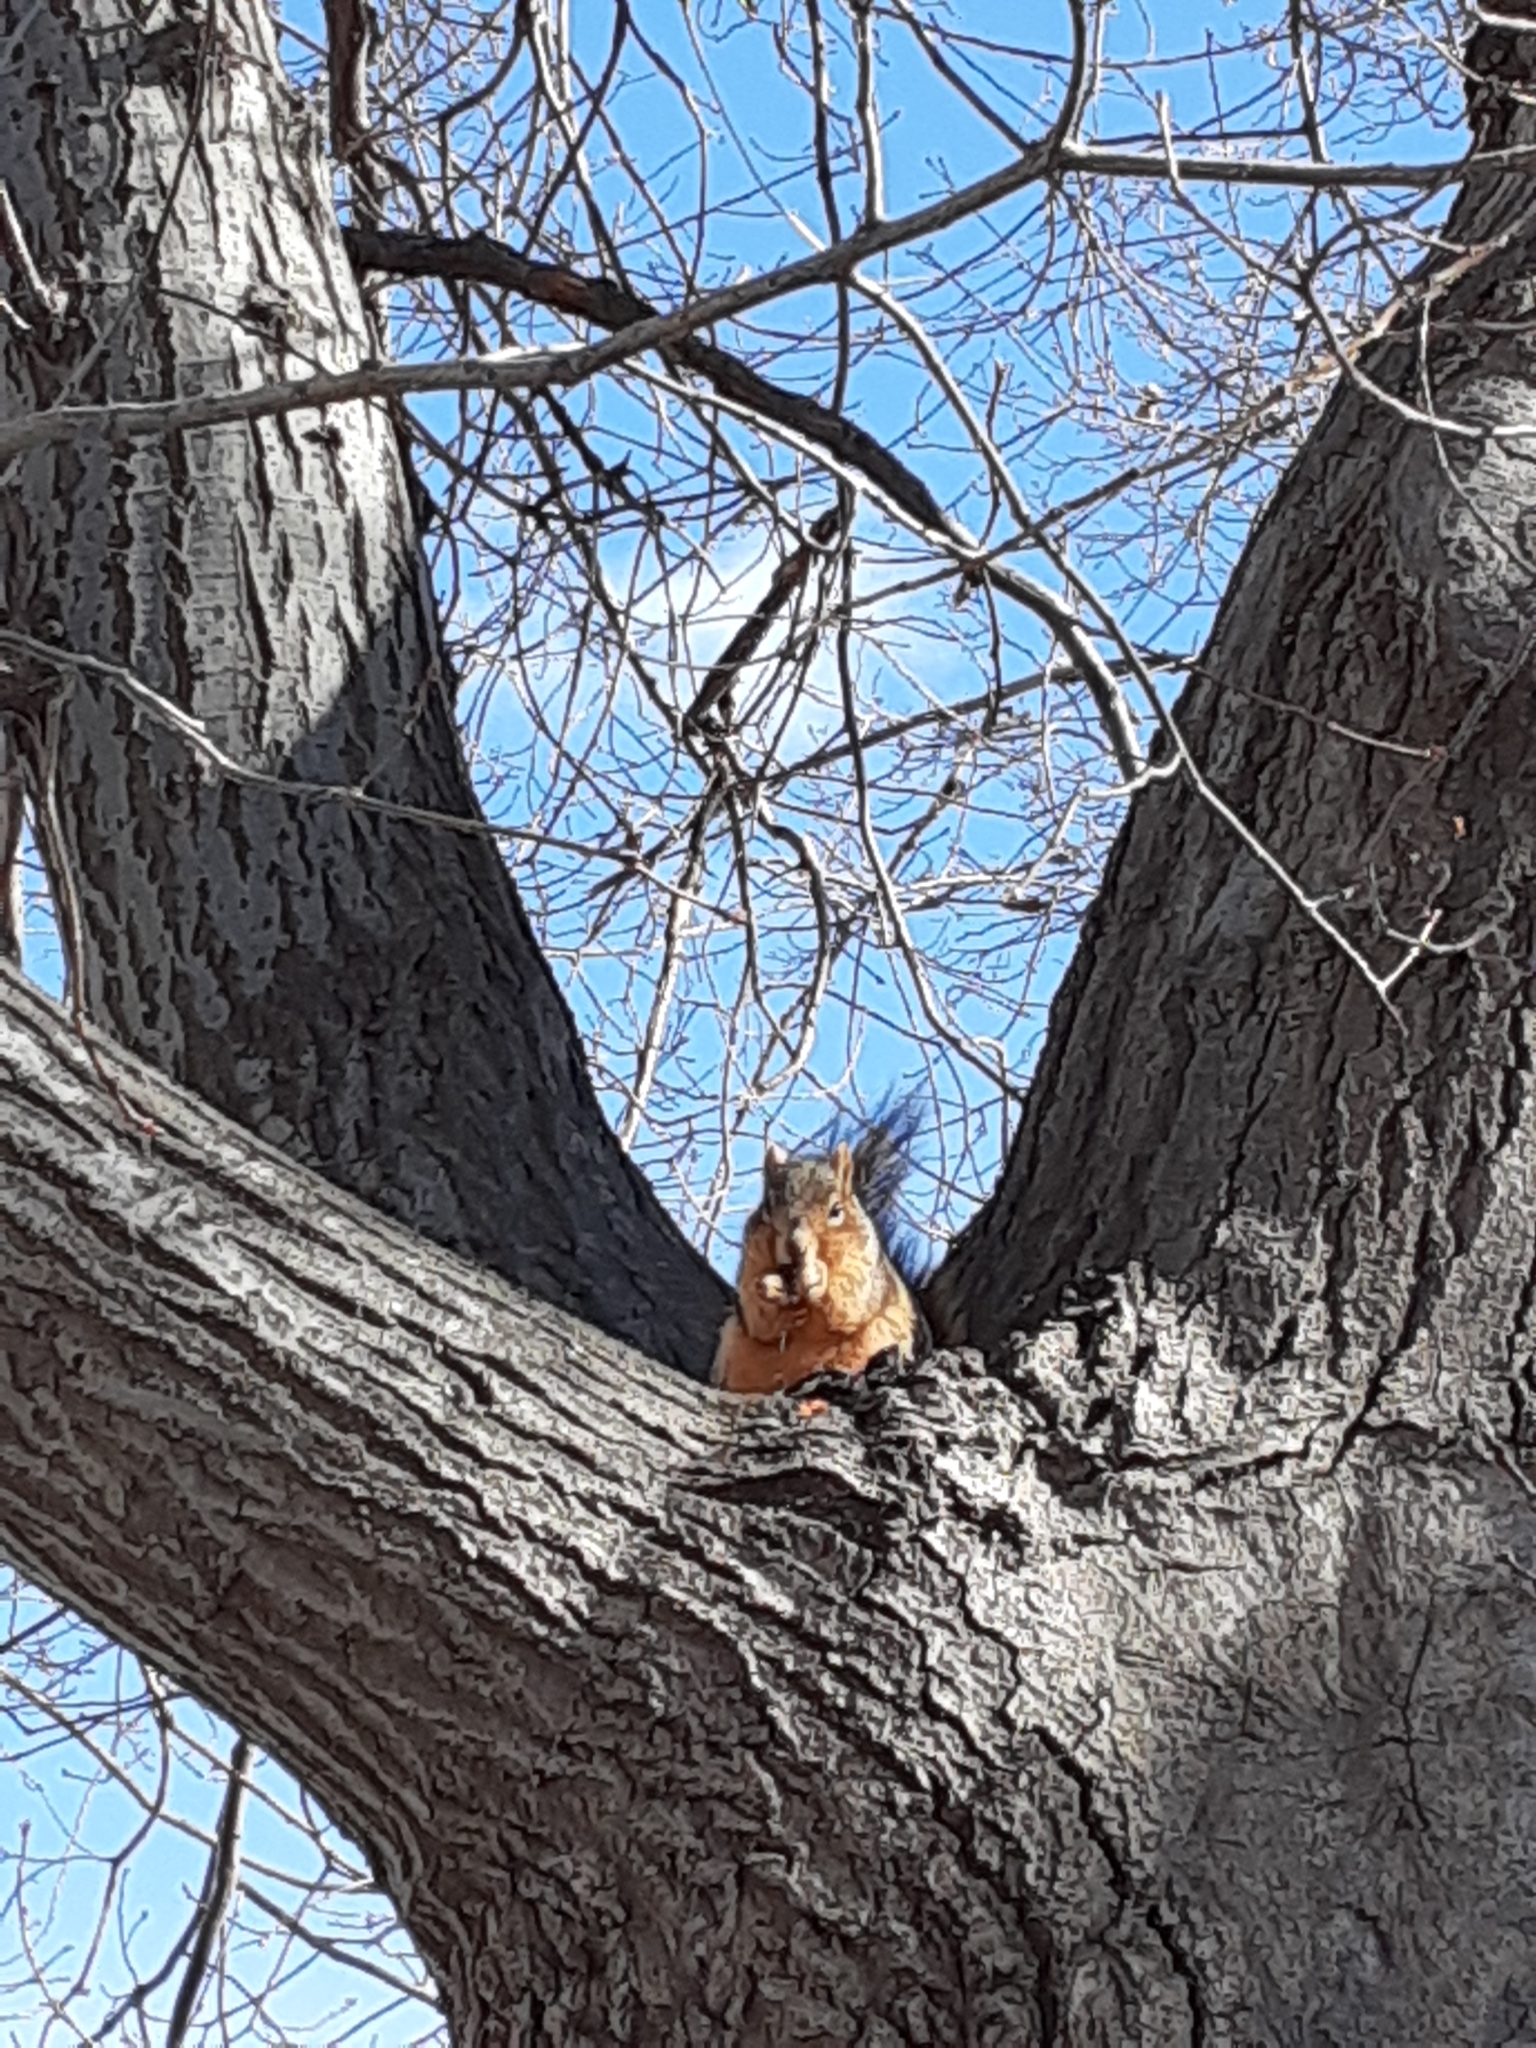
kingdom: Animalia
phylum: Chordata
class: Mammalia
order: Rodentia
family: Sciuridae
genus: Sciurus
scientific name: Sciurus niger
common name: Fox squirrel
